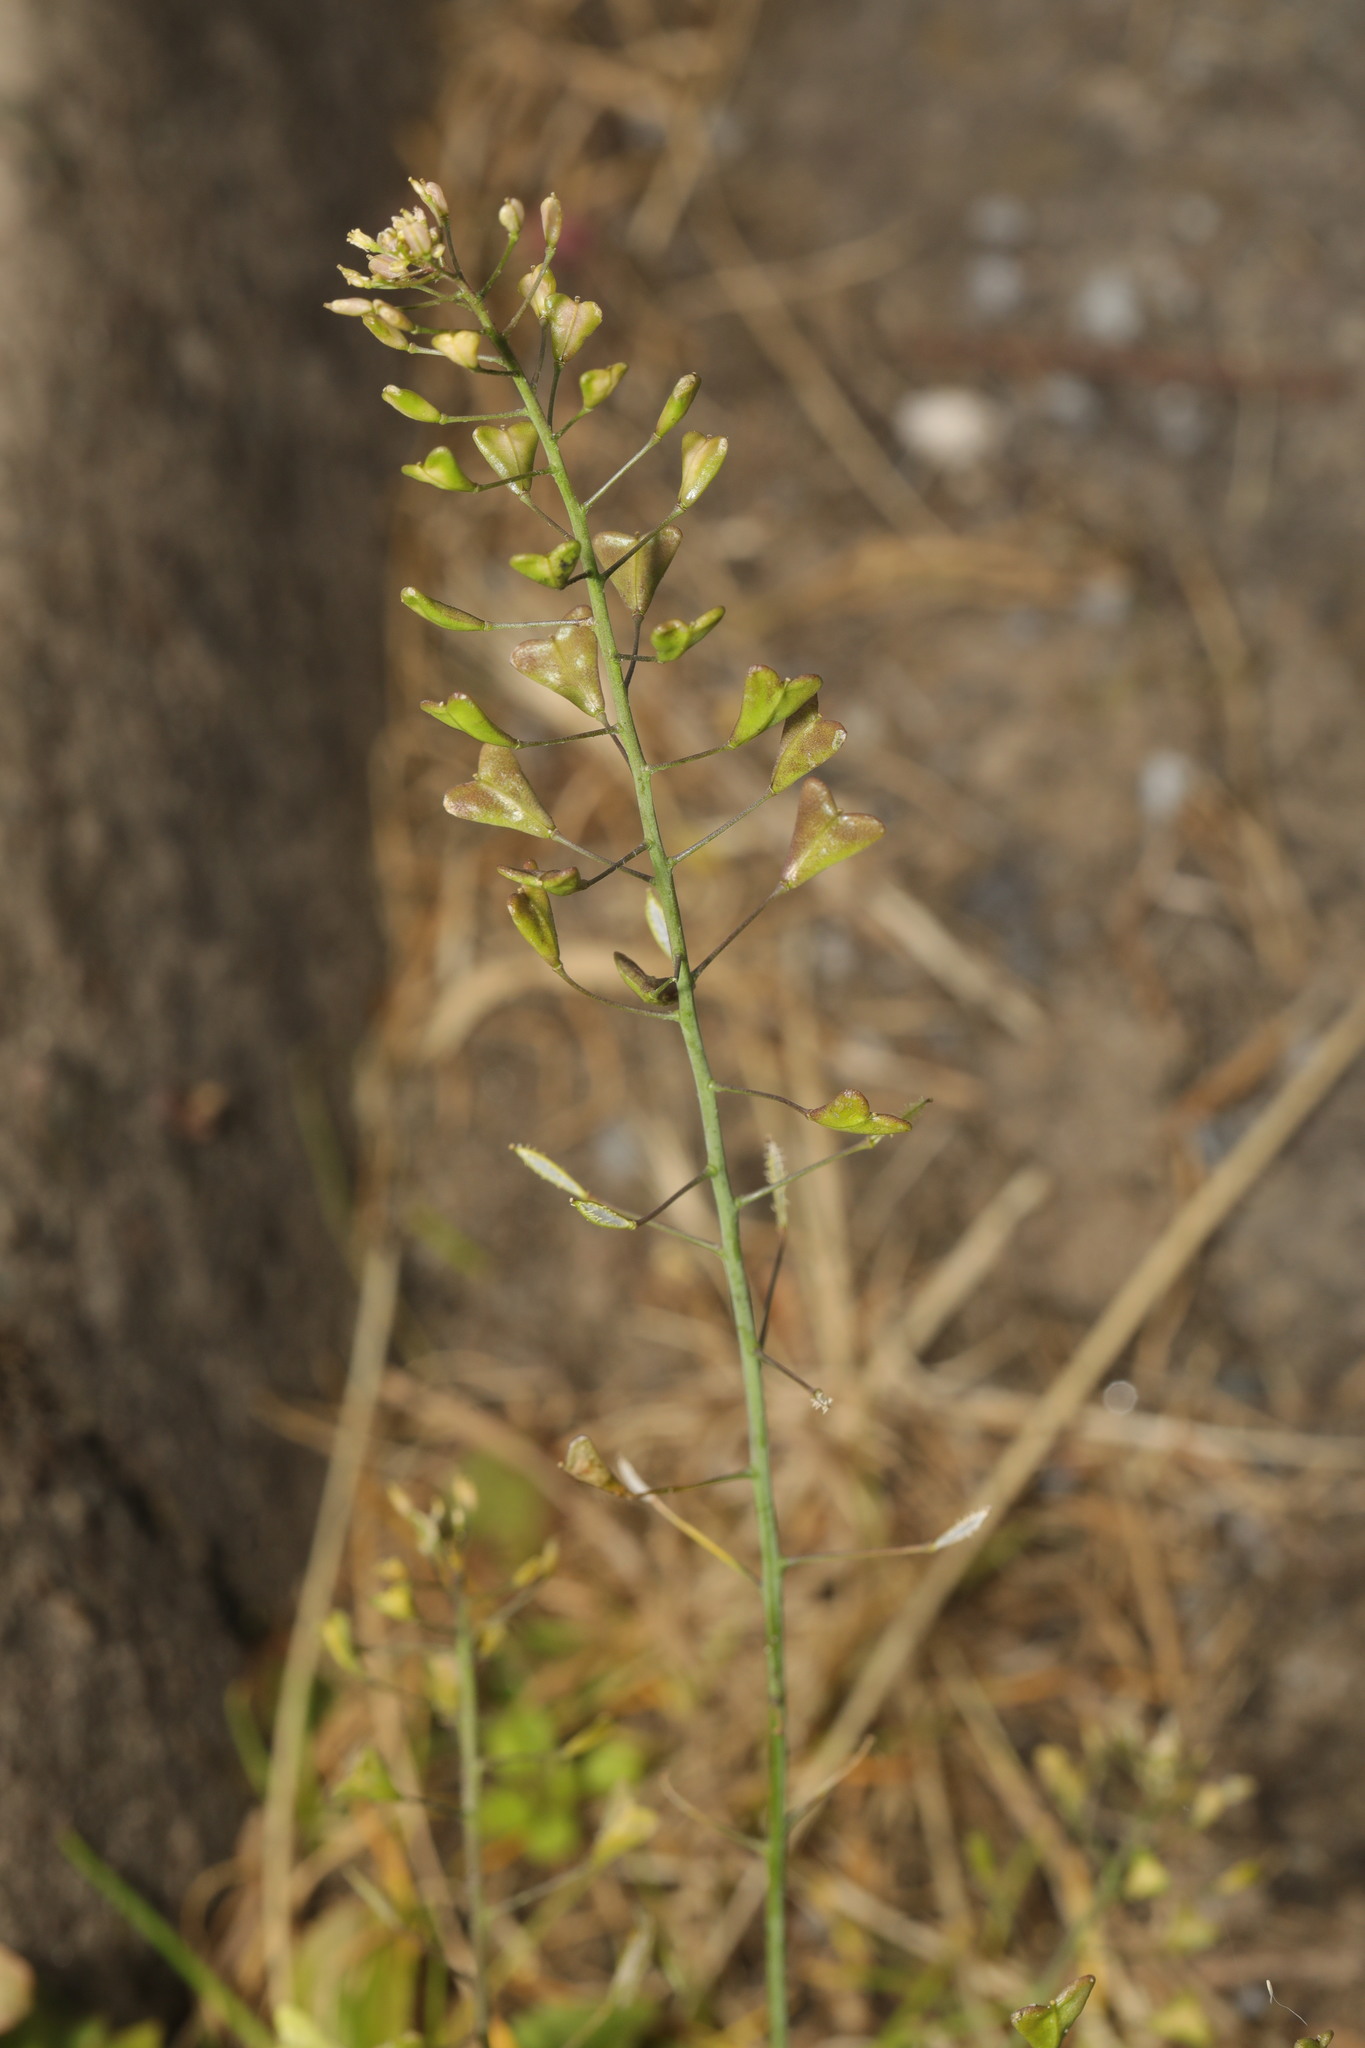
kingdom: Plantae
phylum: Tracheophyta
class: Magnoliopsida
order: Brassicales
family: Brassicaceae
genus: Capsella
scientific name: Capsella bursa-pastoris
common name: Shepherd's purse
